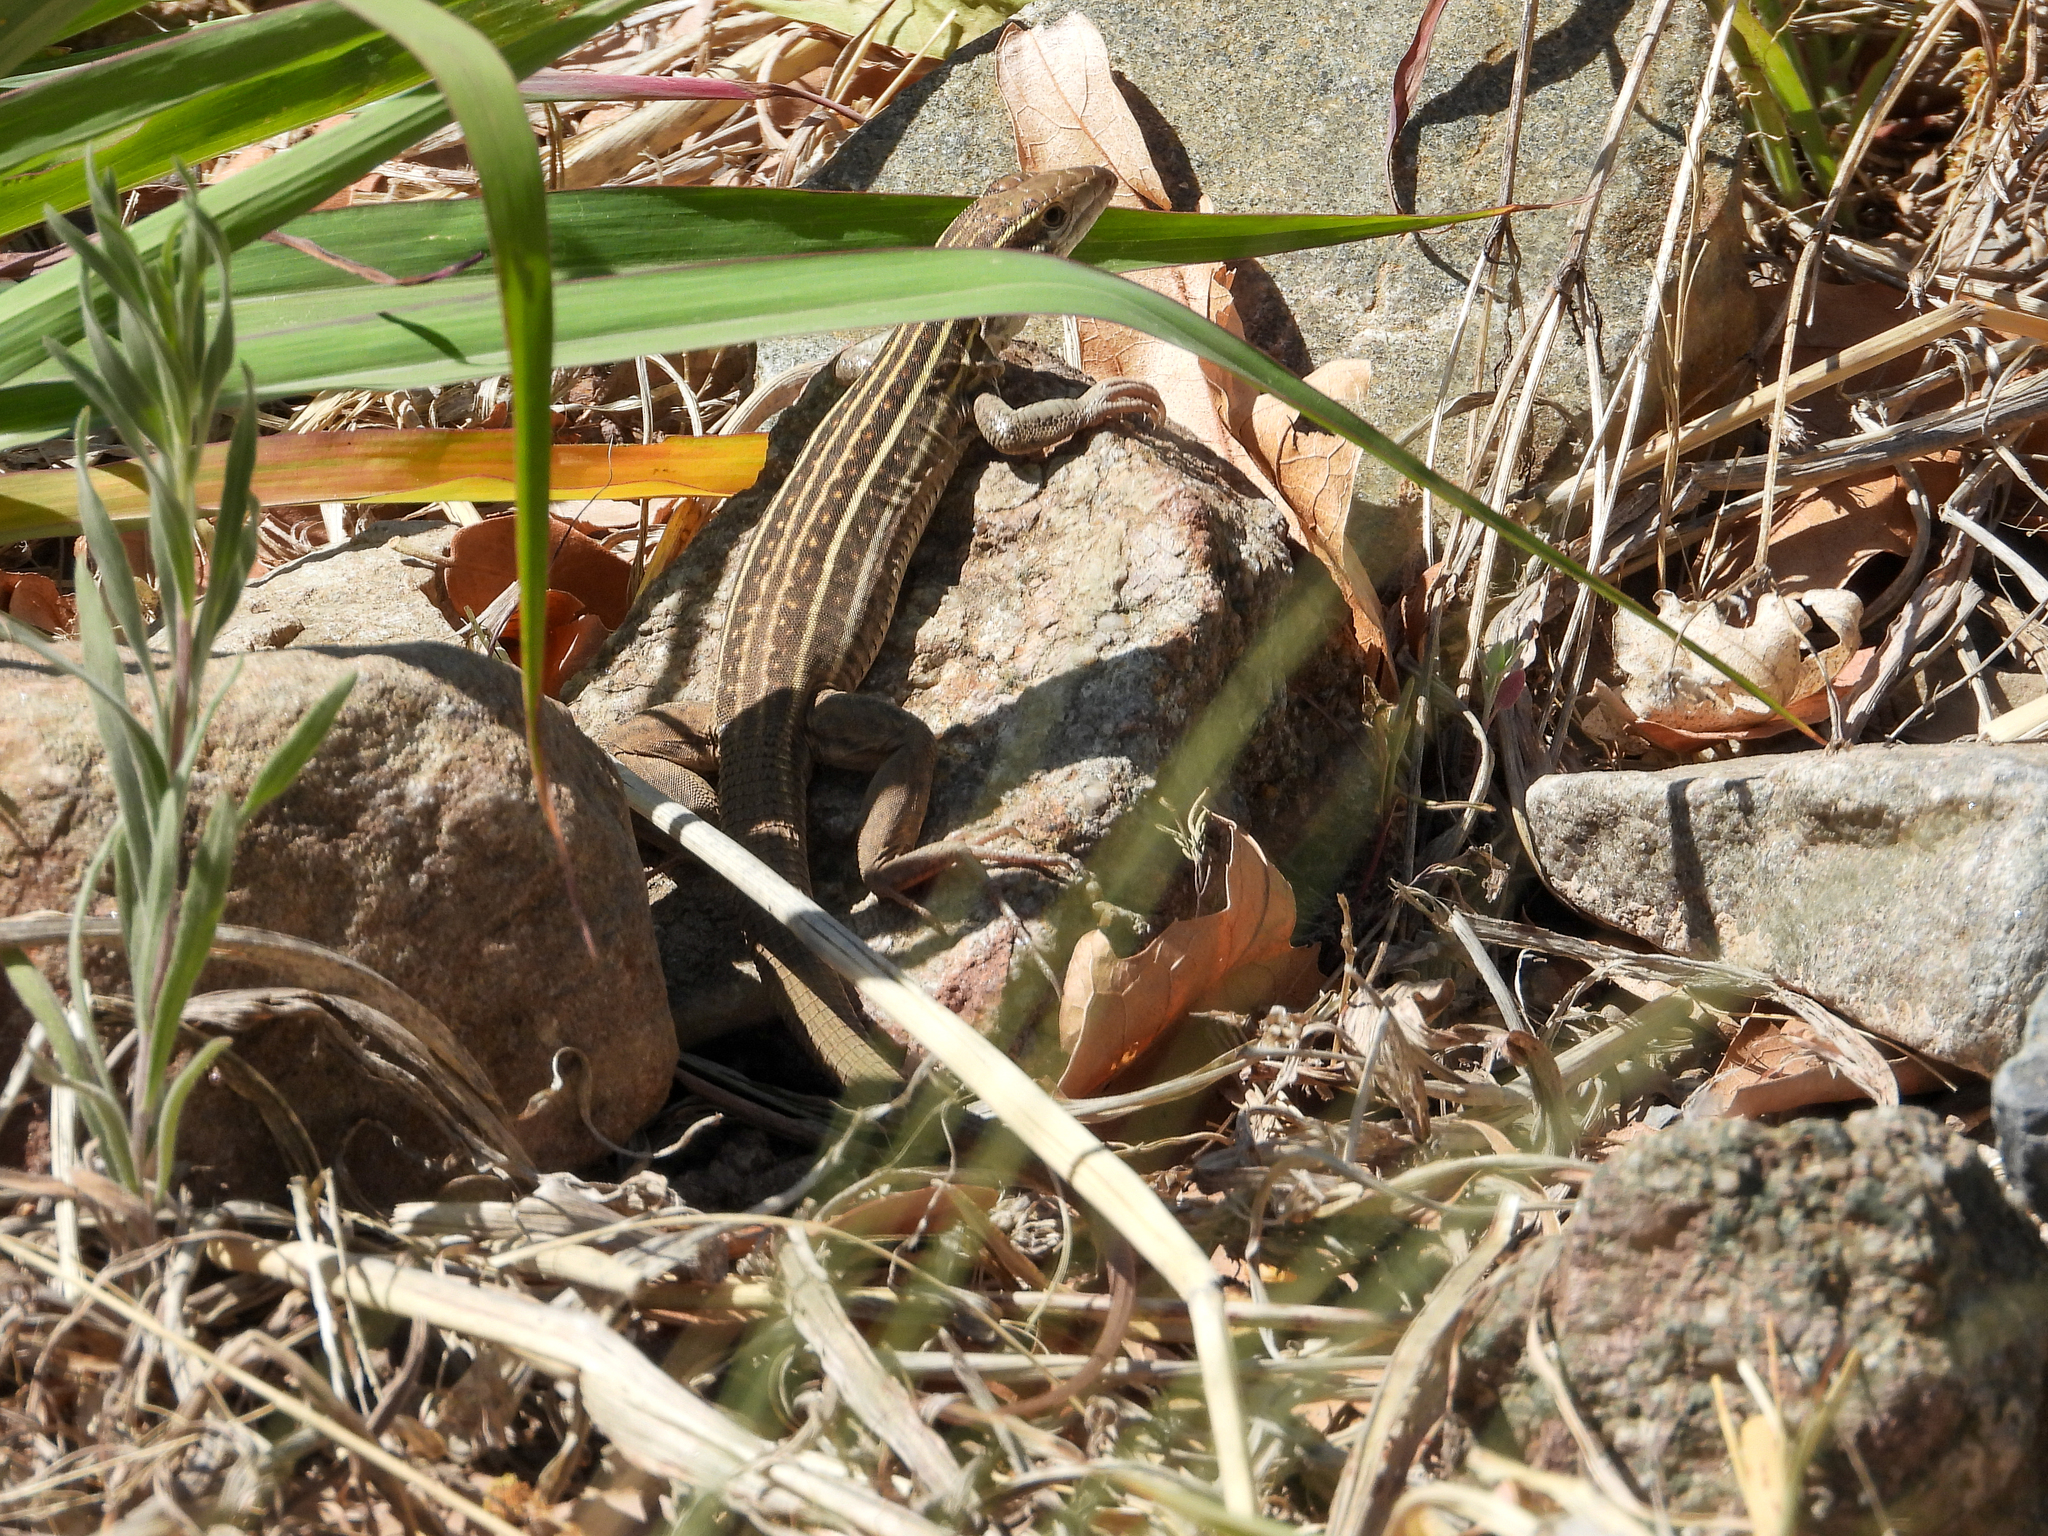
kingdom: Animalia
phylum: Chordata
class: Squamata
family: Teiidae
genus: Aspidoscelis
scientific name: Aspidoscelis sonorae
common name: Sonoran spotted whiptail
